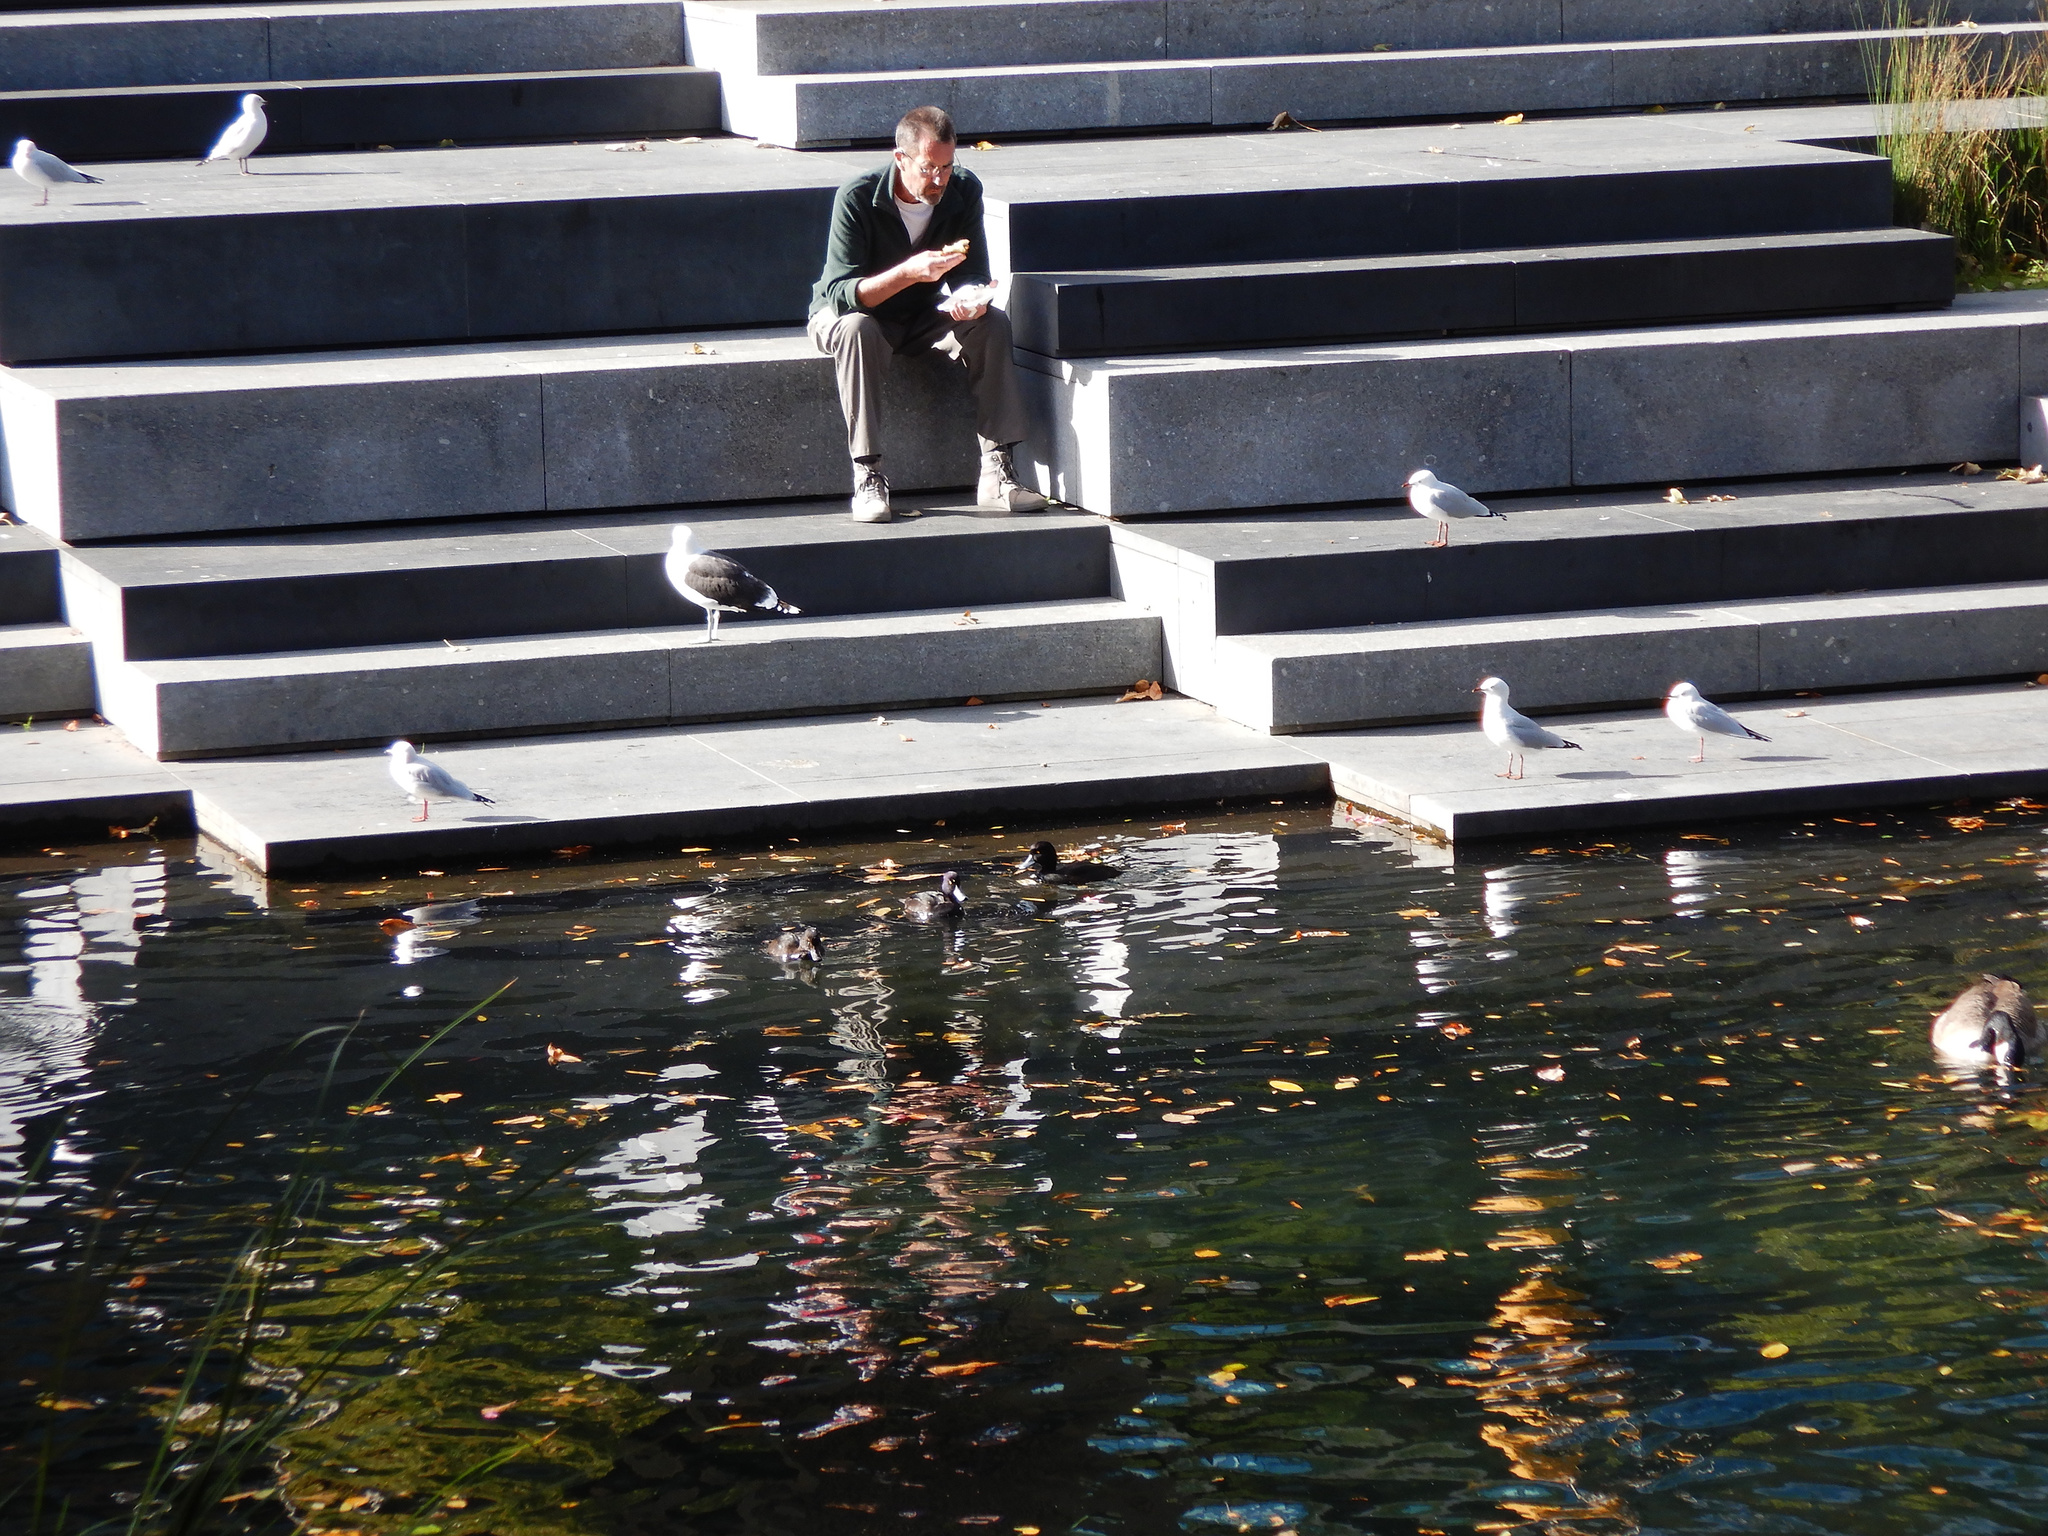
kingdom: Animalia
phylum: Chordata
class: Aves
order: Anseriformes
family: Anatidae
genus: Aythya
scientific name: Aythya novaeseelandiae
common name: New zealand scaup
